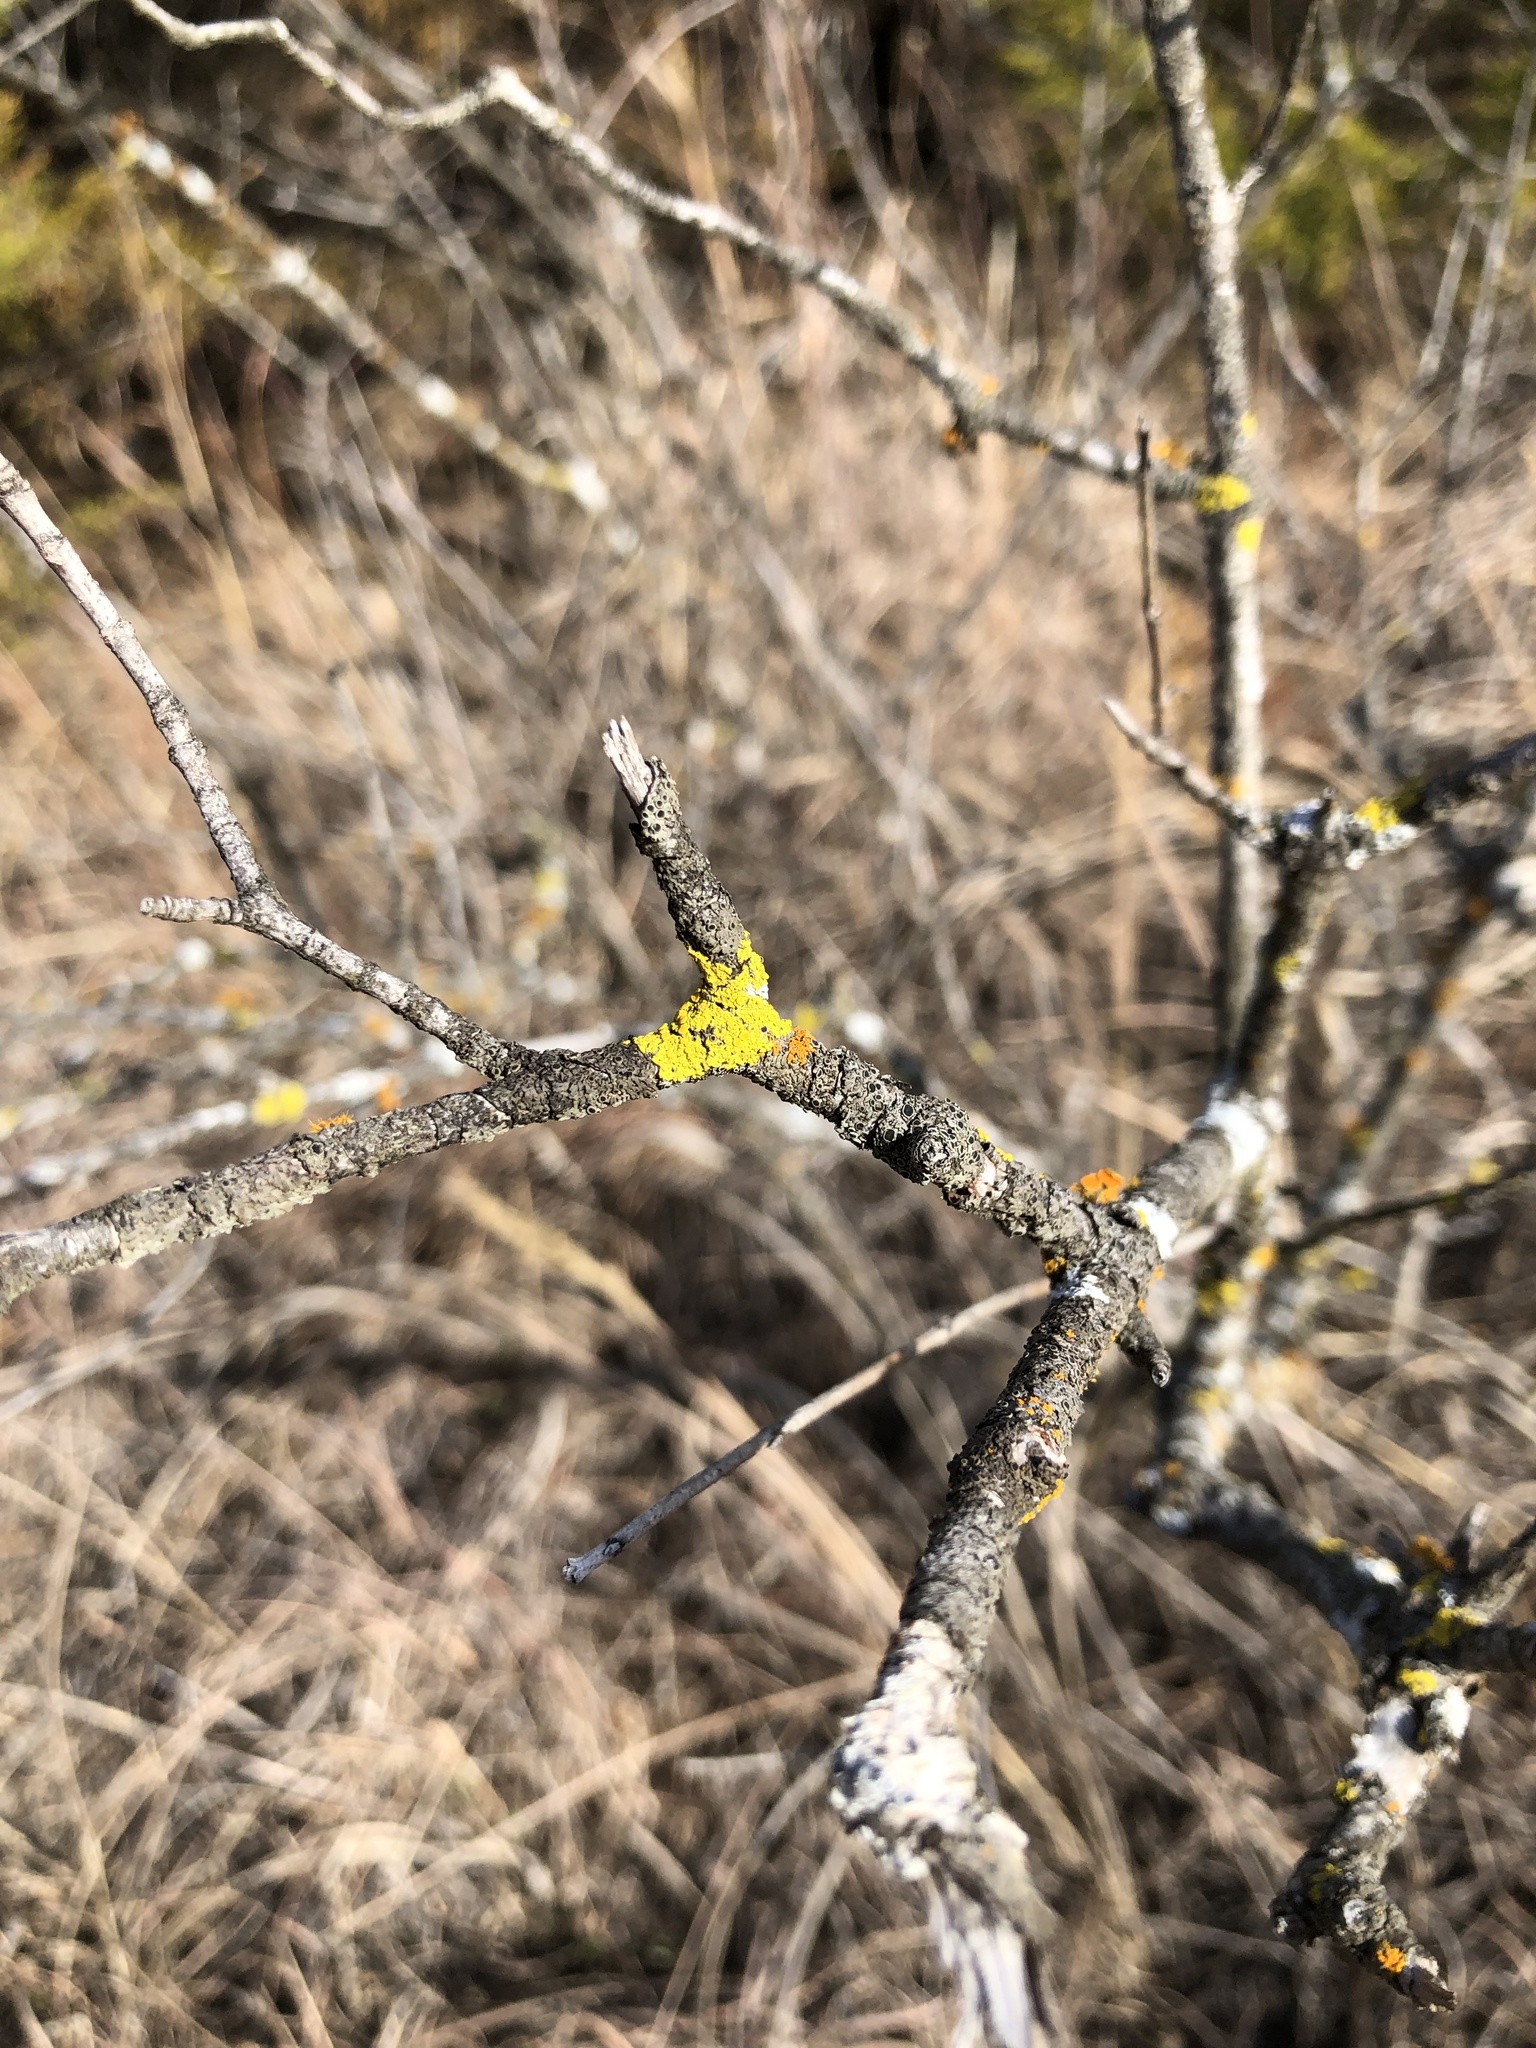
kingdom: Fungi
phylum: Ascomycota
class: Lecanoromycetes
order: Teloschistales
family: Teloschistaceae
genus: Gallowayella
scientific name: Gallowayella montana
